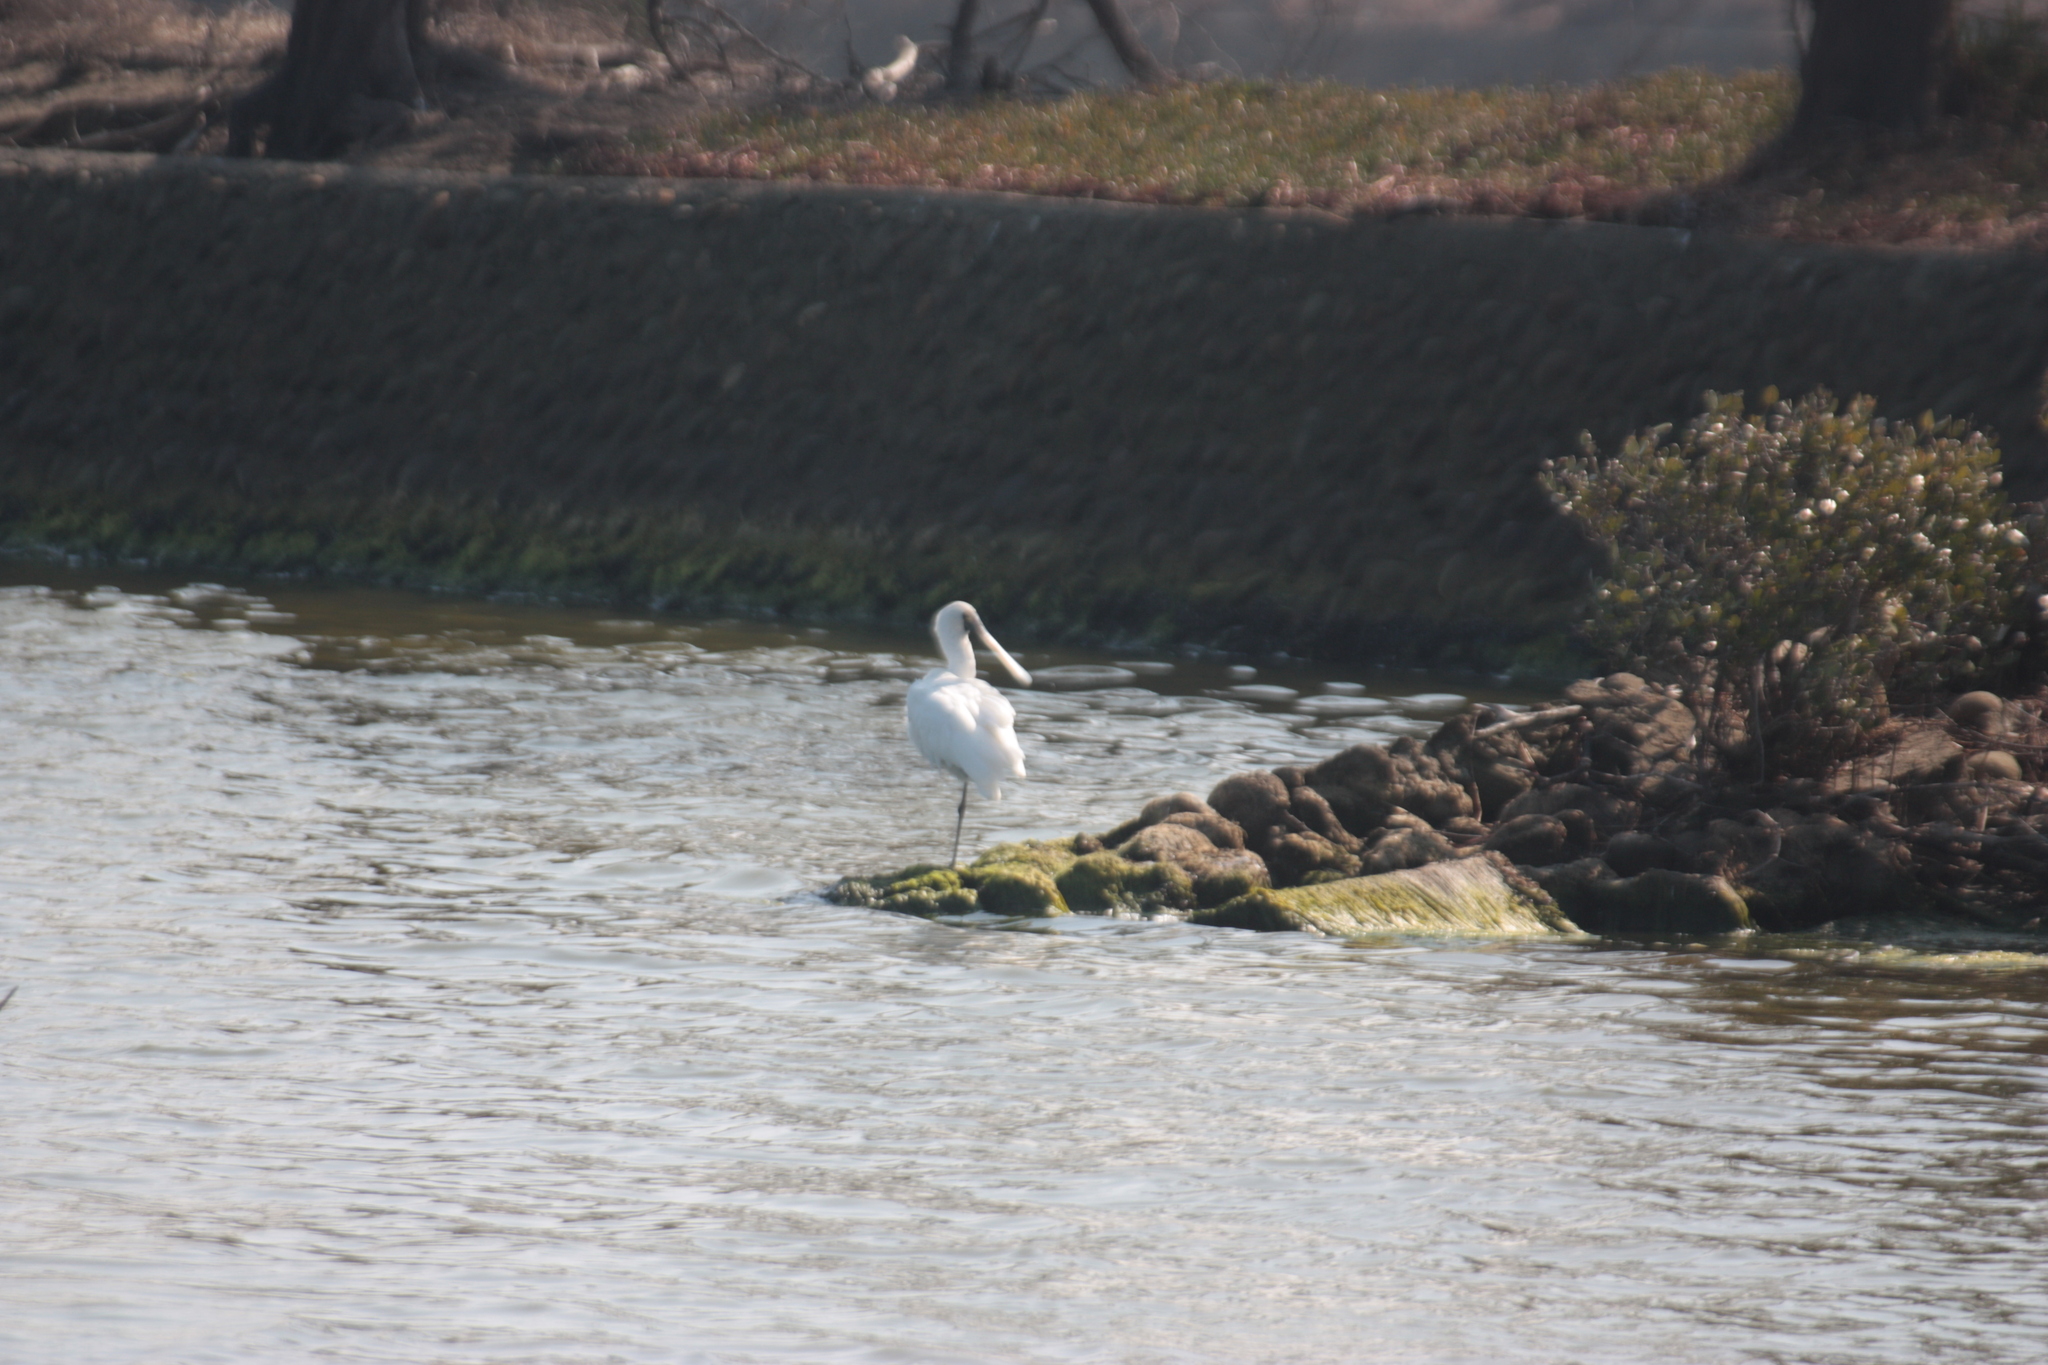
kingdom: Animalia
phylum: Chordata
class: Aves
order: Pelecaniformes
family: Threskiornithidae
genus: Platalea
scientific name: Platalea minor
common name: Black-faced spoonbill
